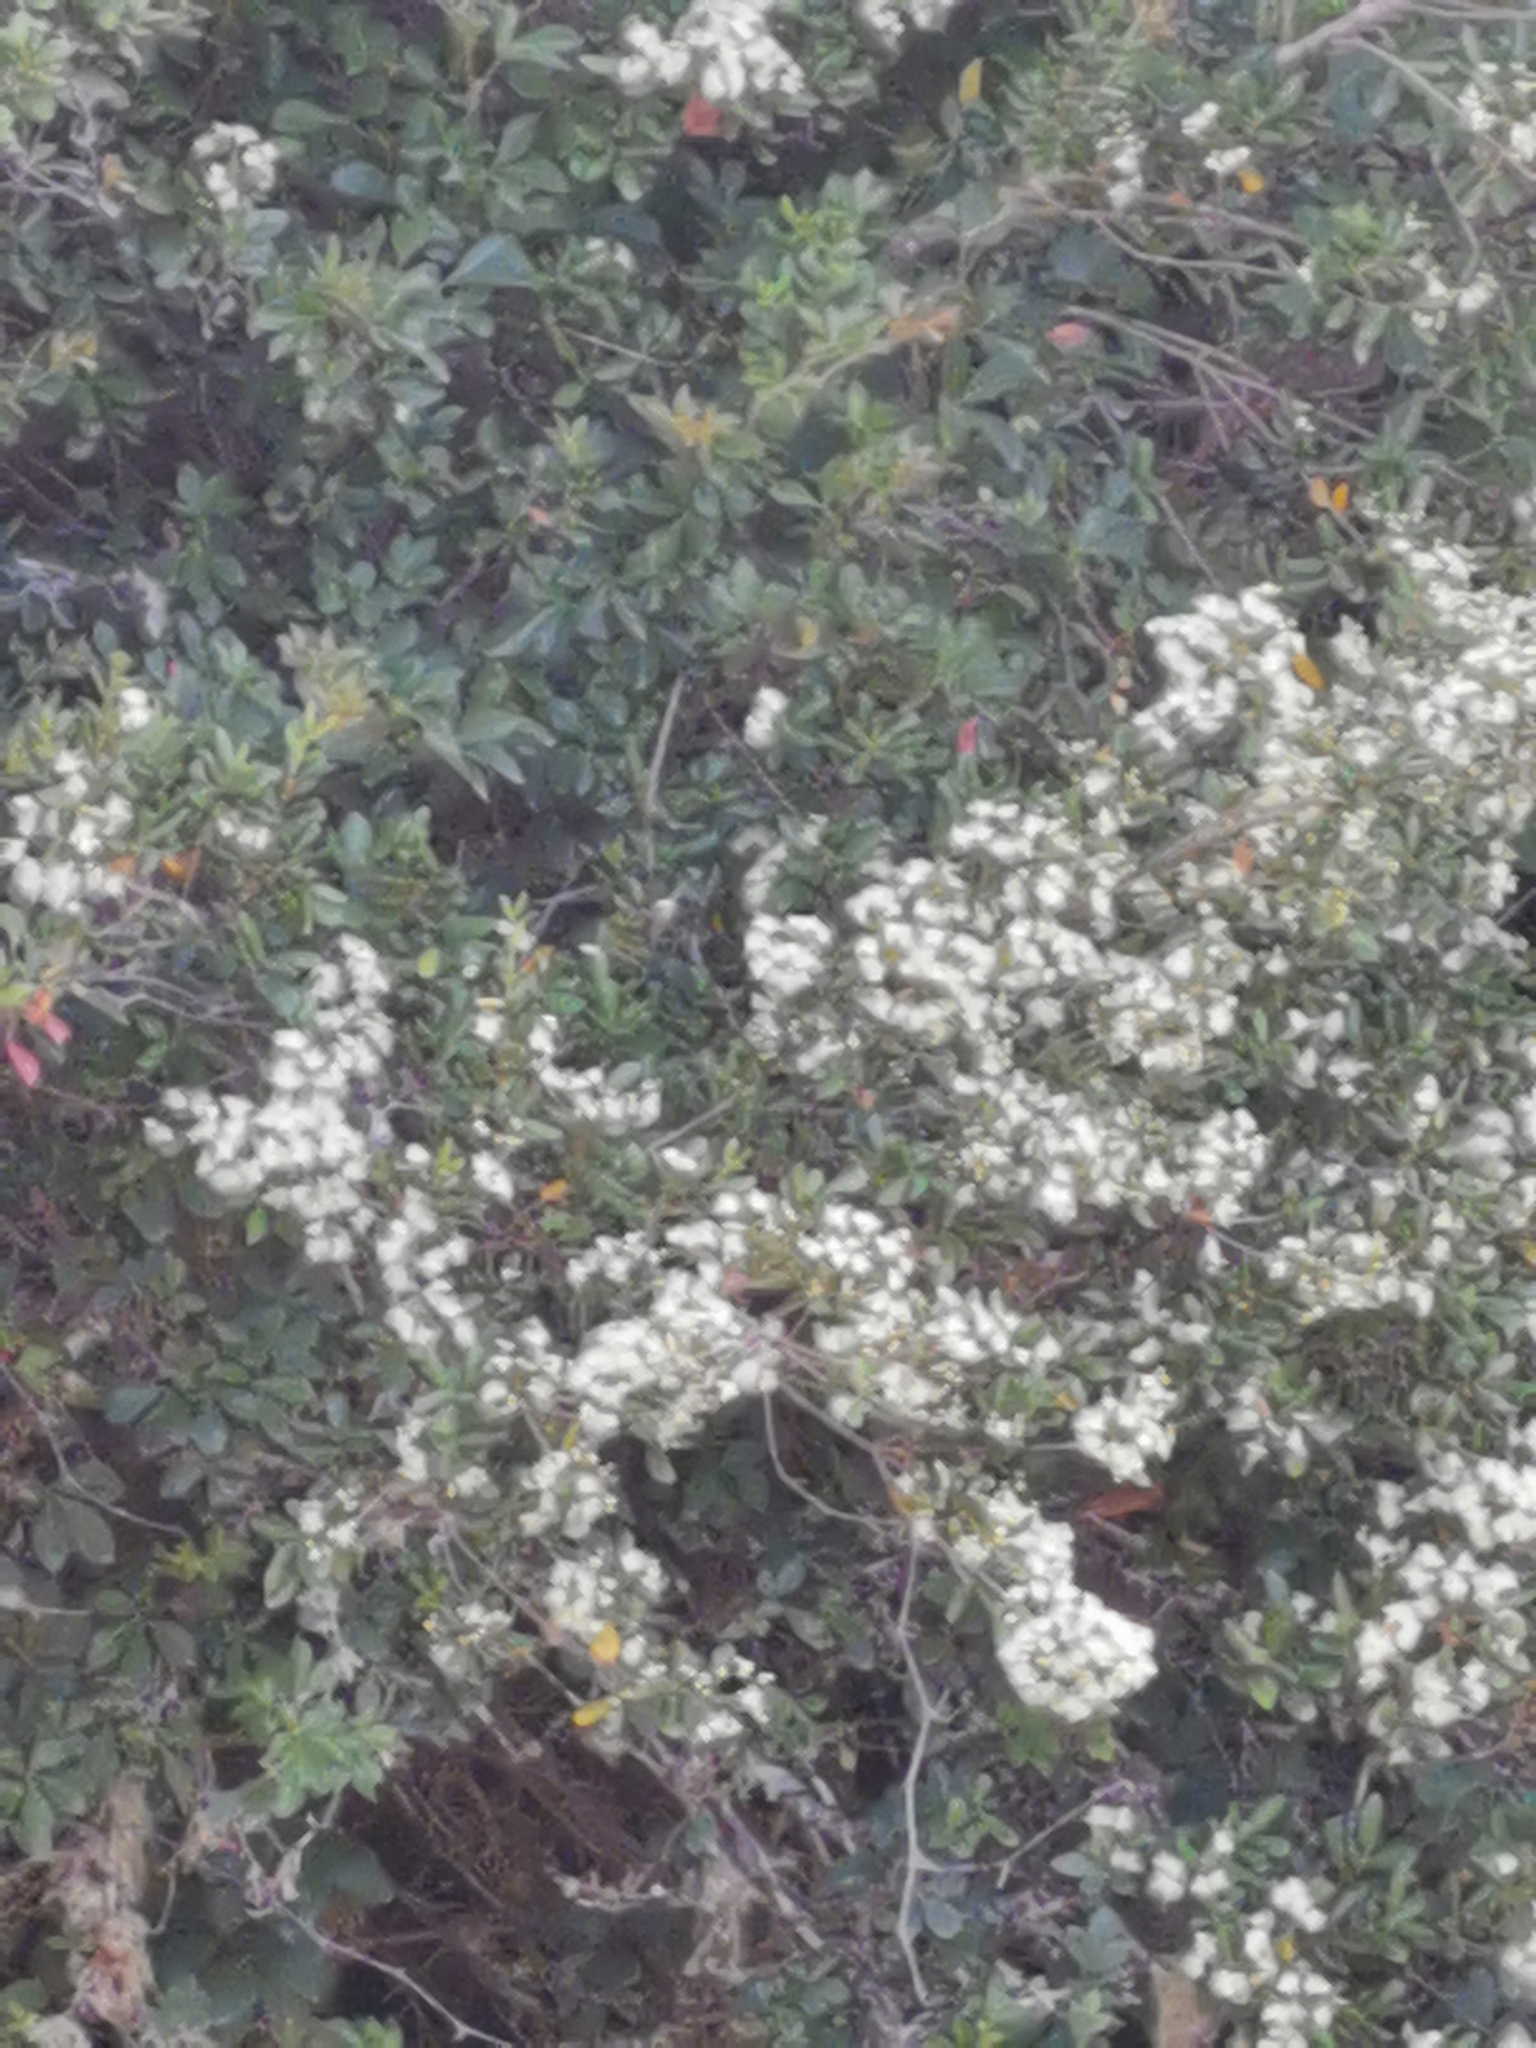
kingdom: Plantae
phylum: Tracheophyta
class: Magnoliopsida
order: Myrtales
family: Myrtaceae
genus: Blepharocalyx
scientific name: Blepharocalyx cruckshanksii
